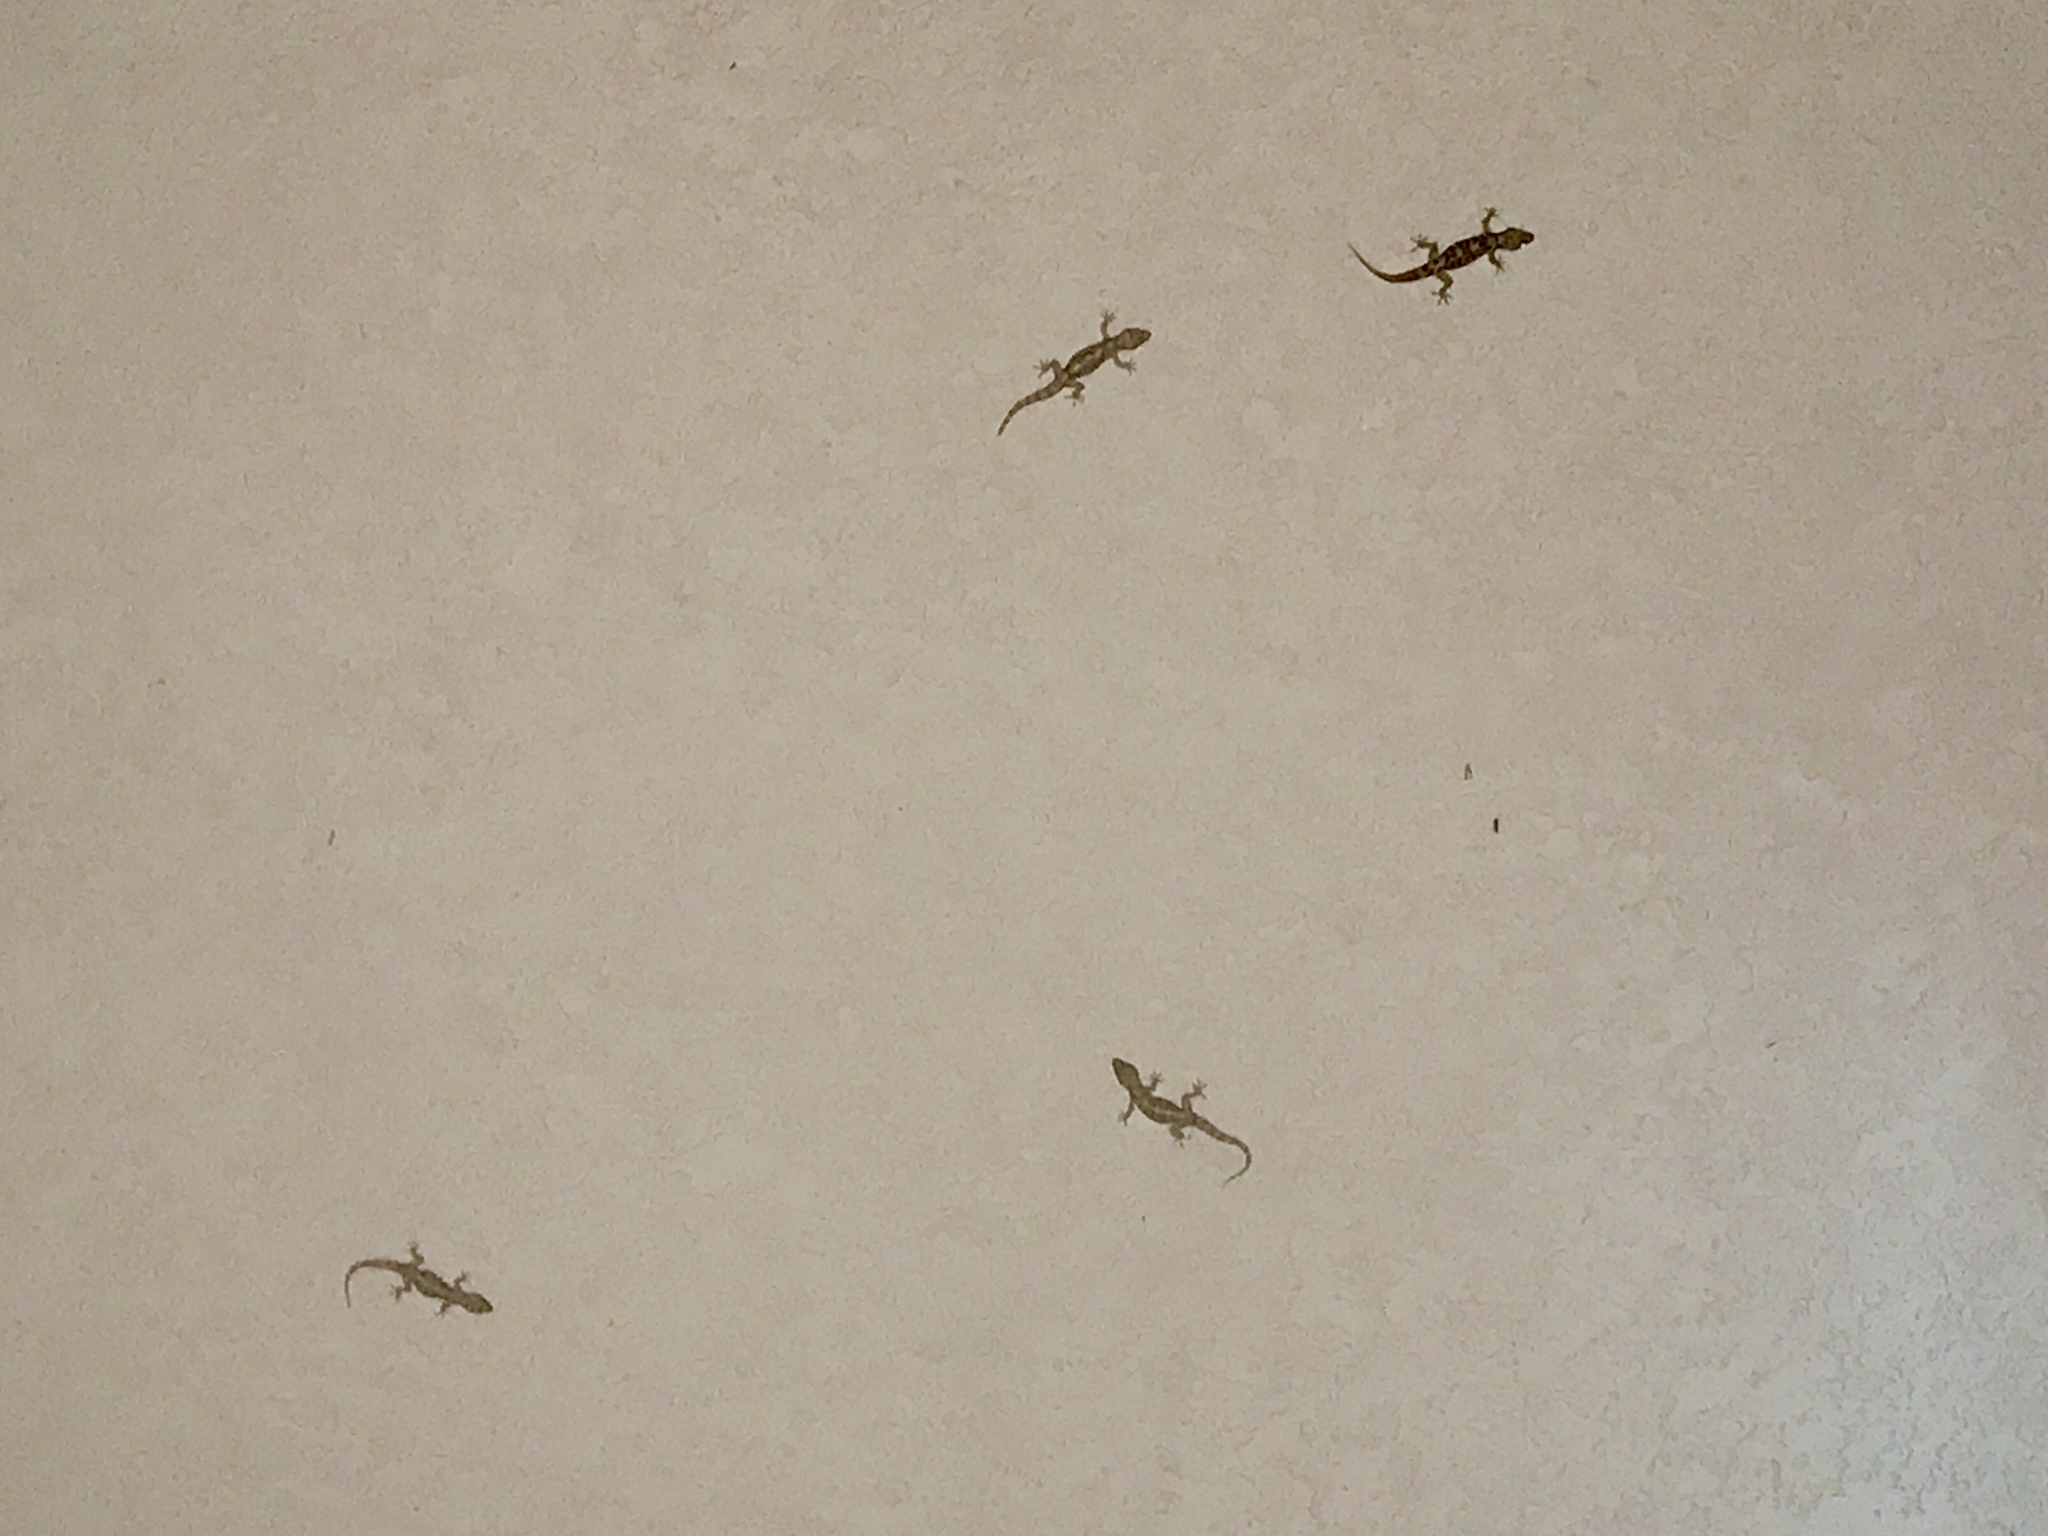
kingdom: Animalia
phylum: Chordata
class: Squamata
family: Gekkonidae
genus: Hemidactylus
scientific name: Hemidactylus turcicus
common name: Turkish gecko
